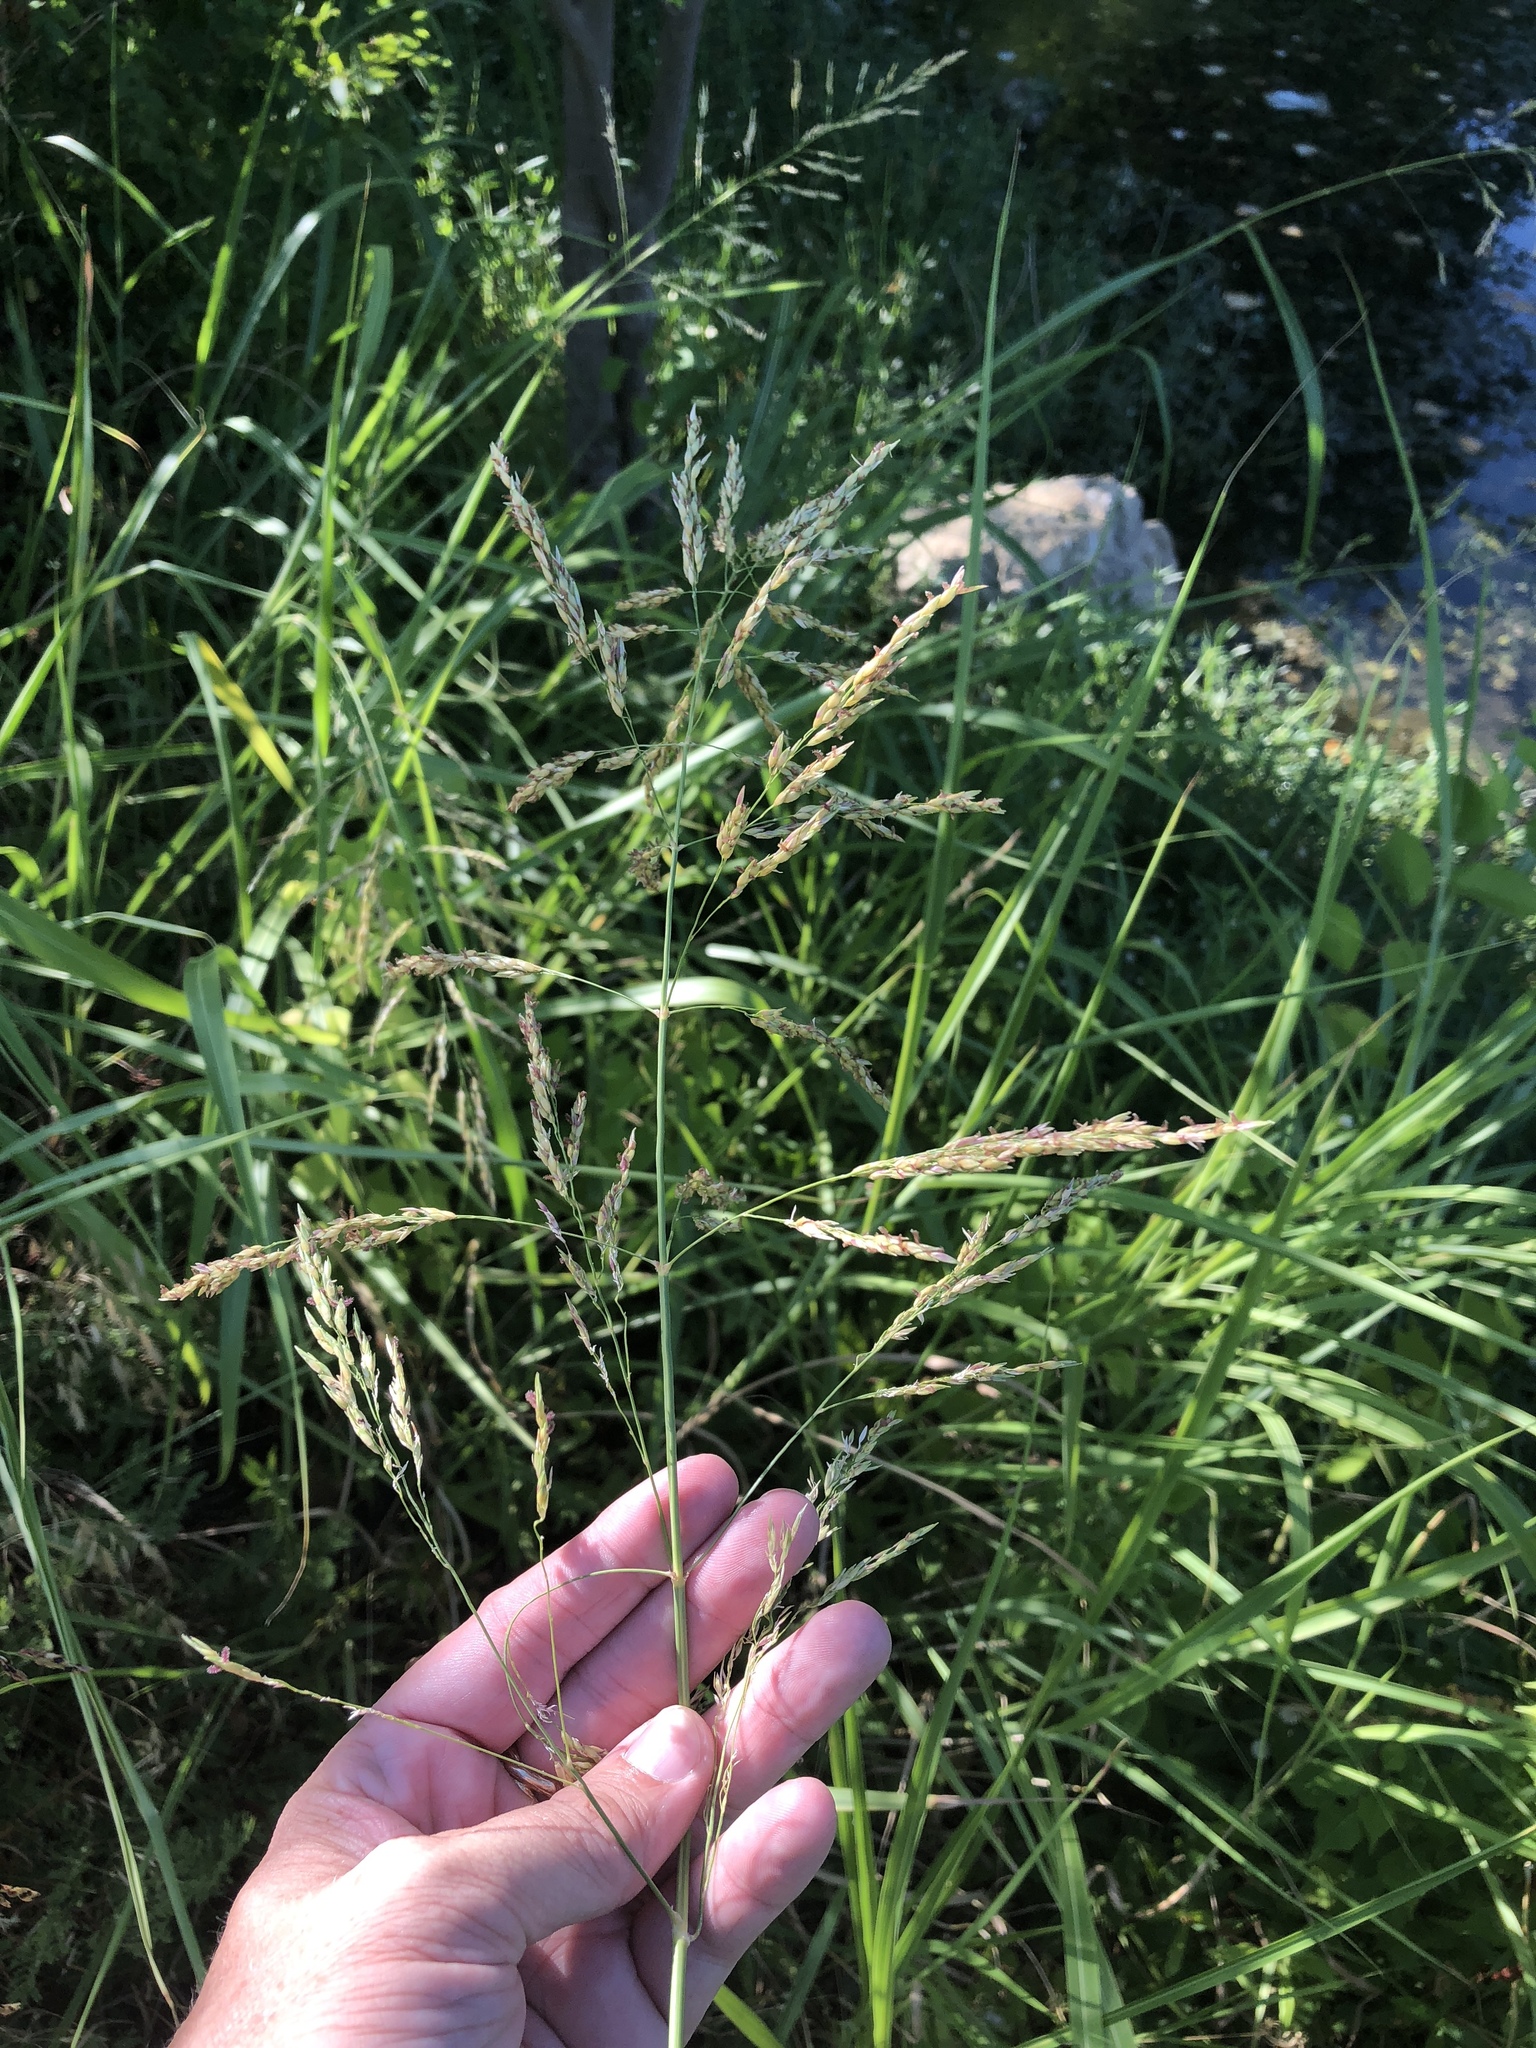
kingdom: Plantae
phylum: Tracheophyta
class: Liliopsida
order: Poales
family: Poaceae
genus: Sorghum
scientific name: Sorghum halepense
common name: Johnson-grass
